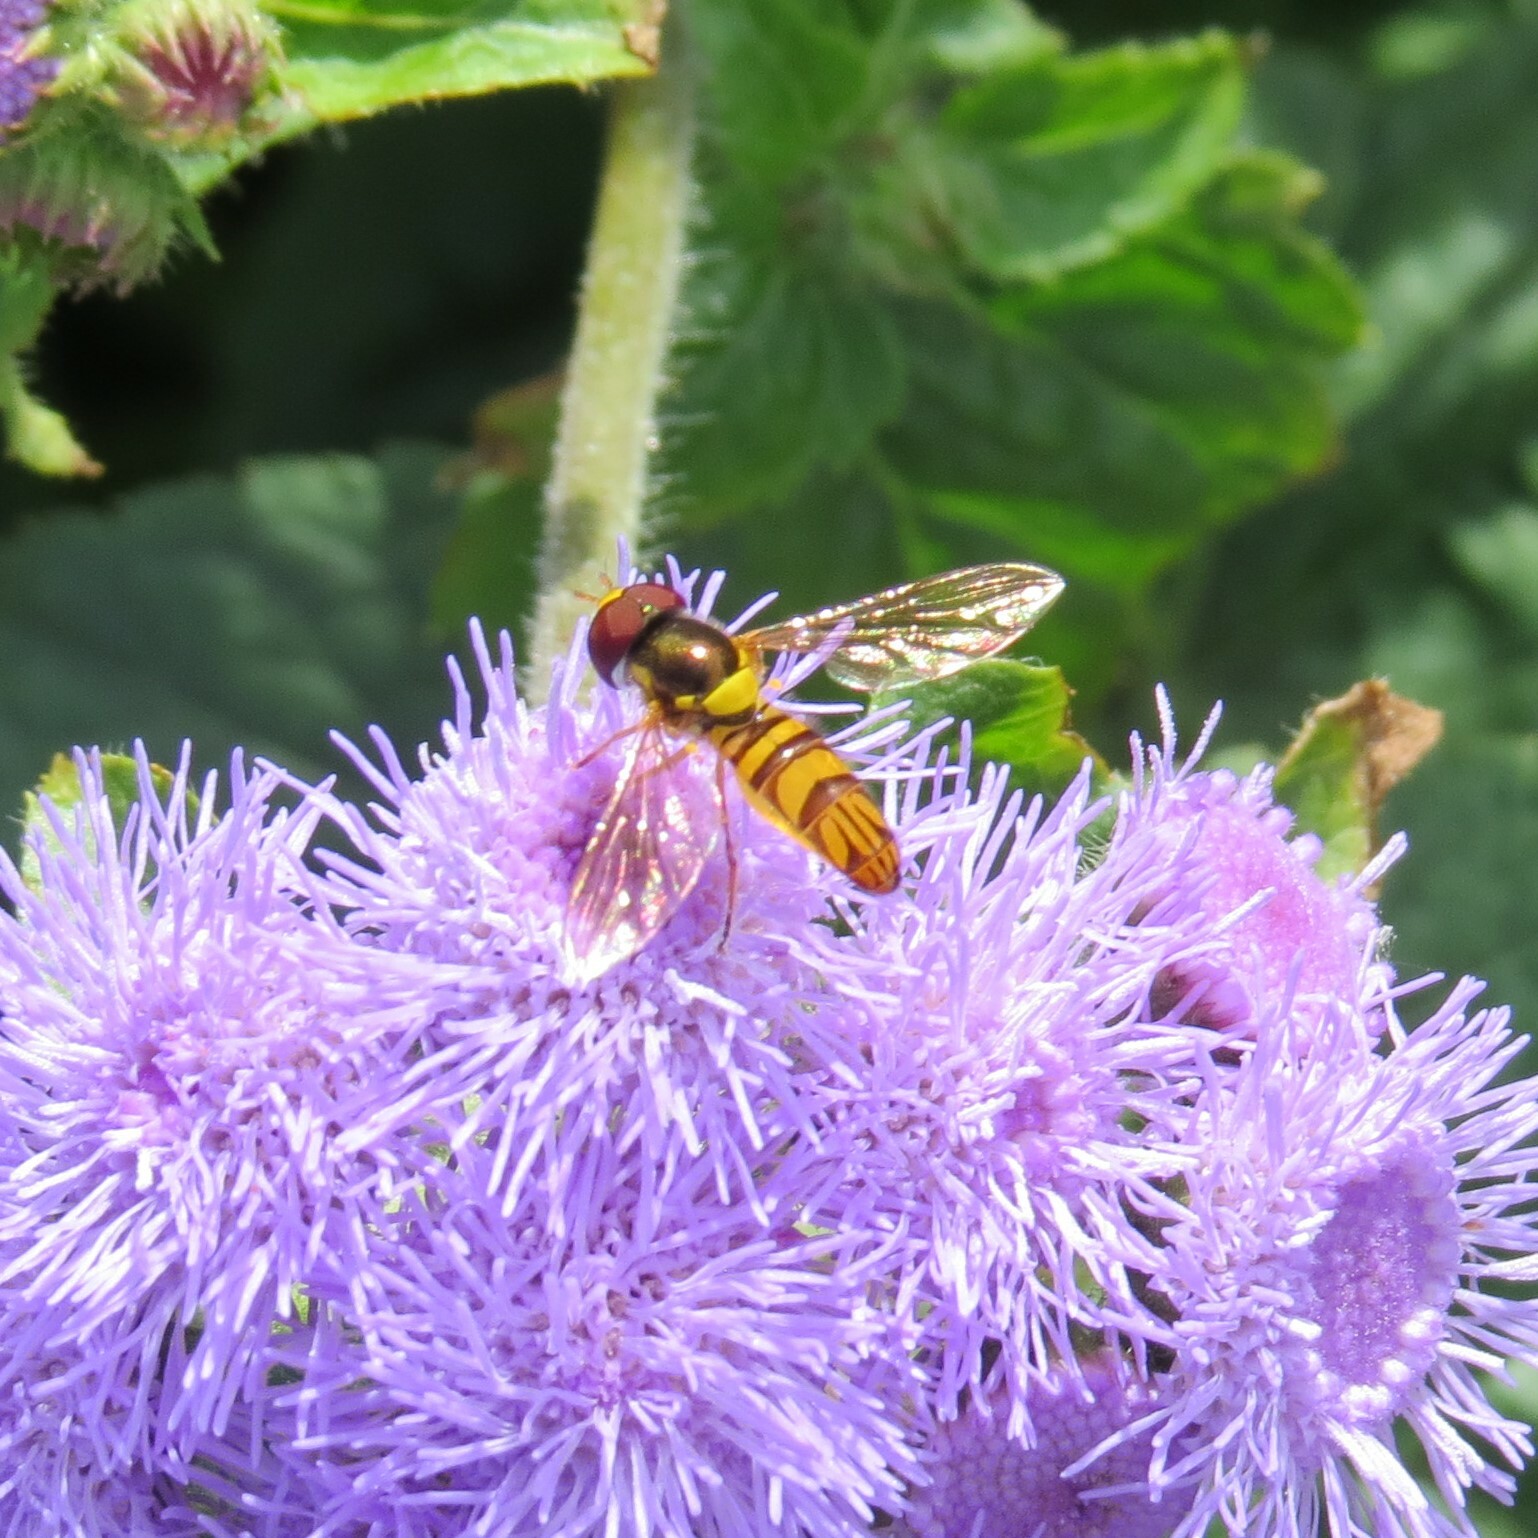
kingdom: Animalia
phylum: Arthropoda
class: Insecta
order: Diptera
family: Syrphidae
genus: Allograpta
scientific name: Allograpta obliqua
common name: Common oblique syrphid
